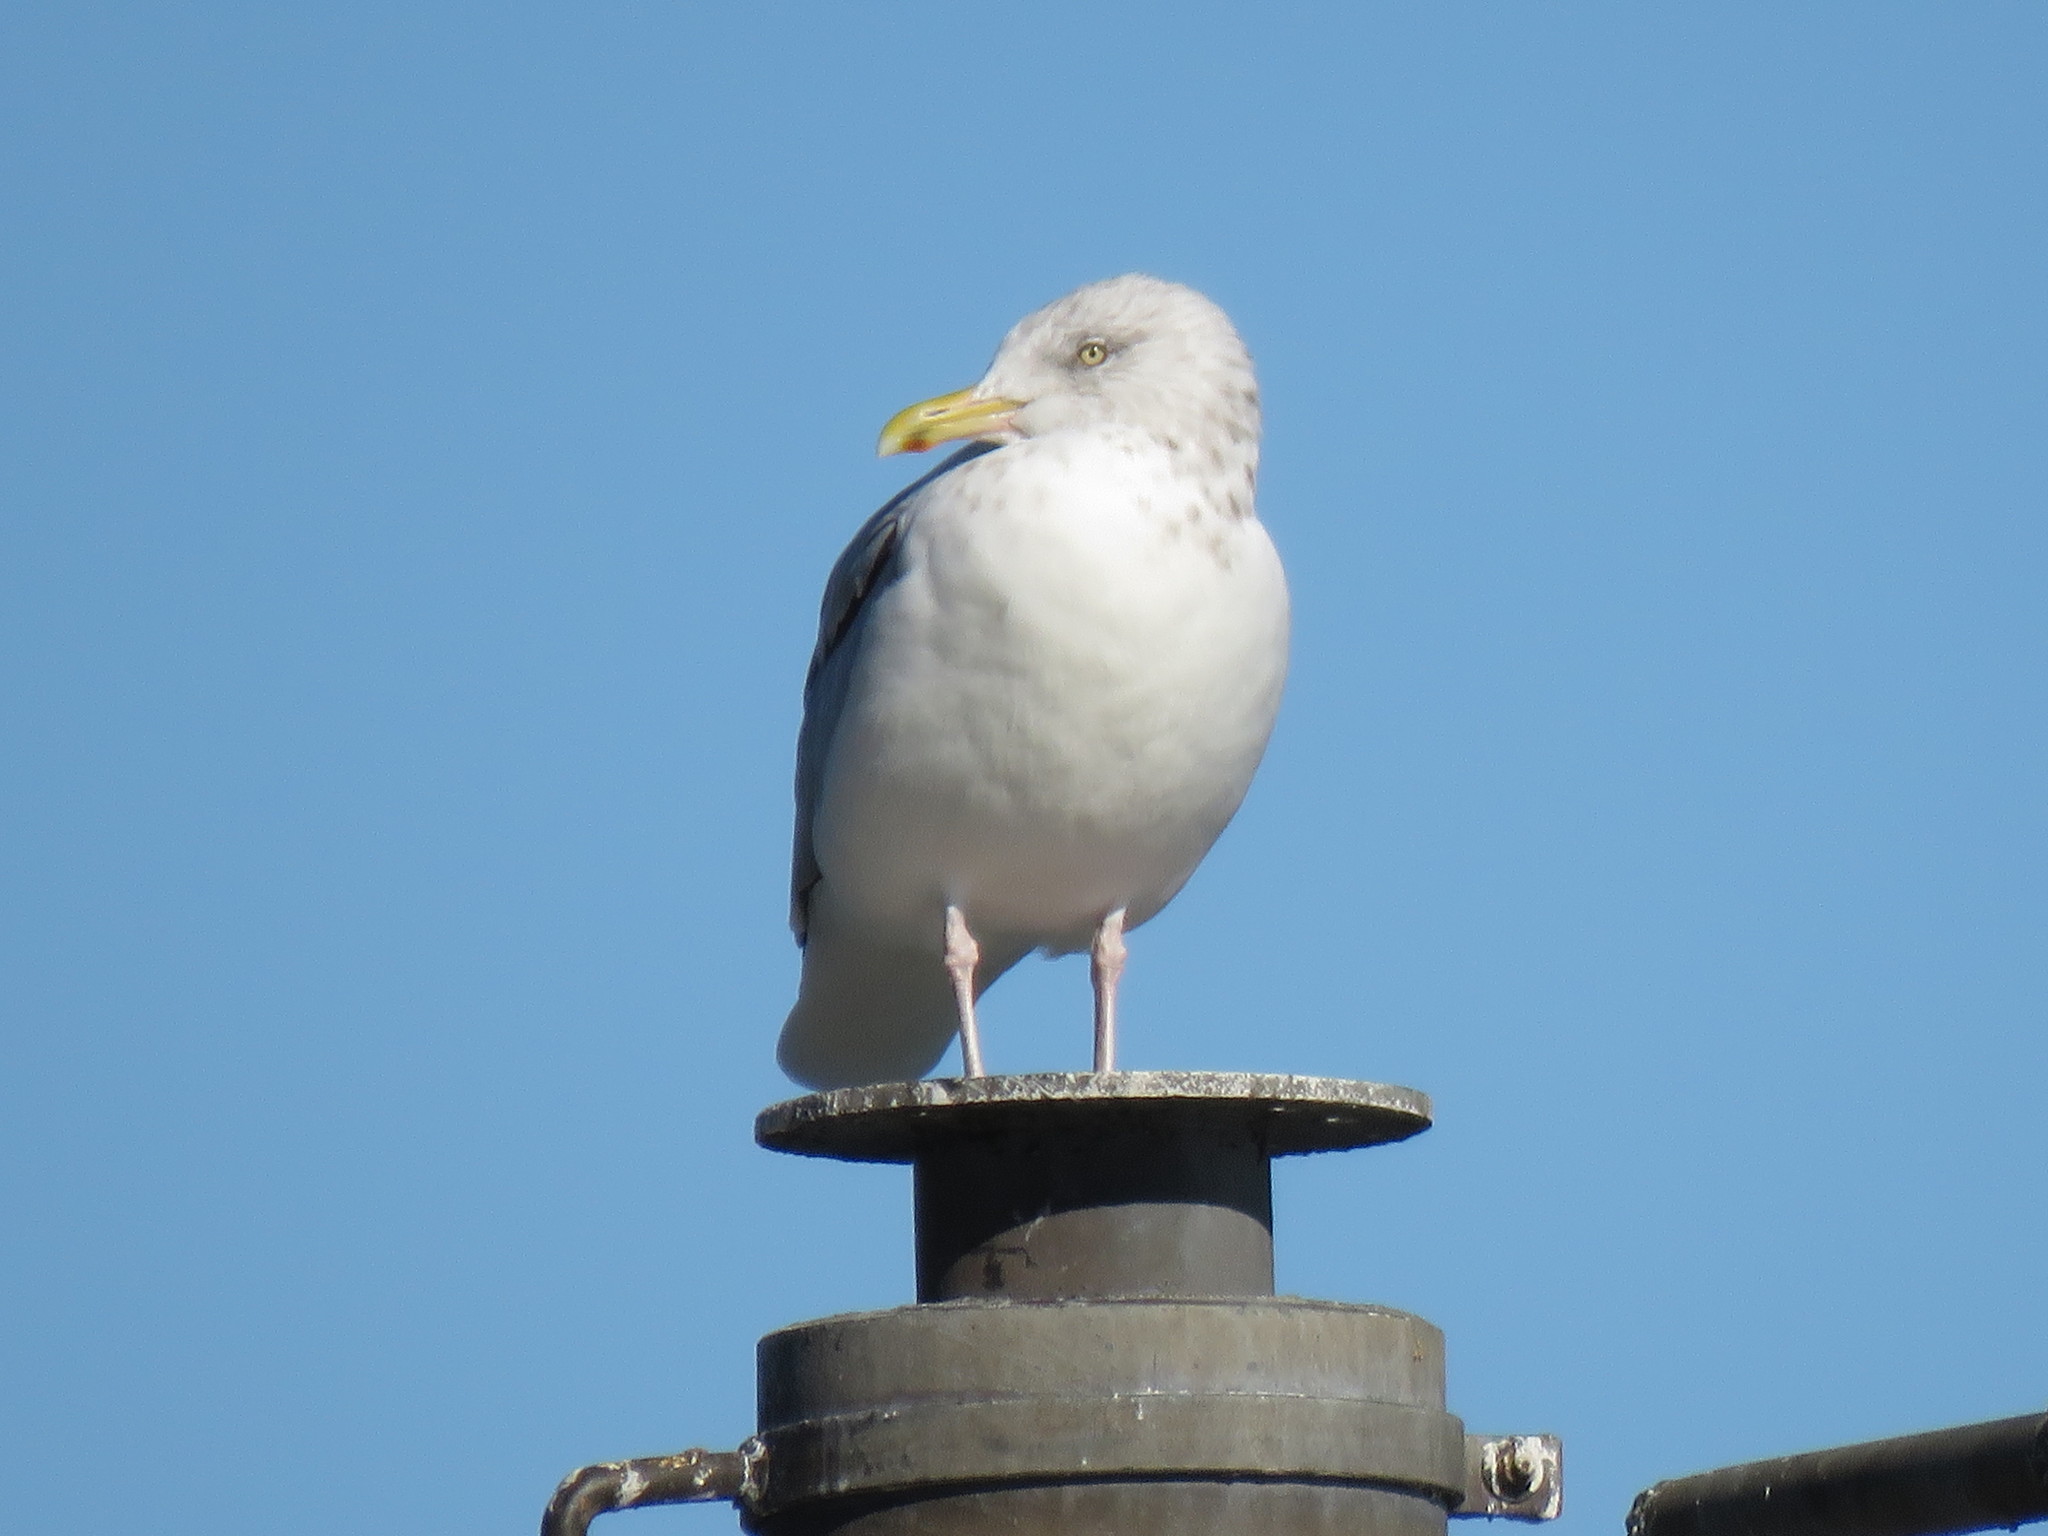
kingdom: Animalia
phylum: Chordata
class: Aves
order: Charadriiformes
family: Laridae
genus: Larus
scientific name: Larus smithsonianus
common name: American herring gull
